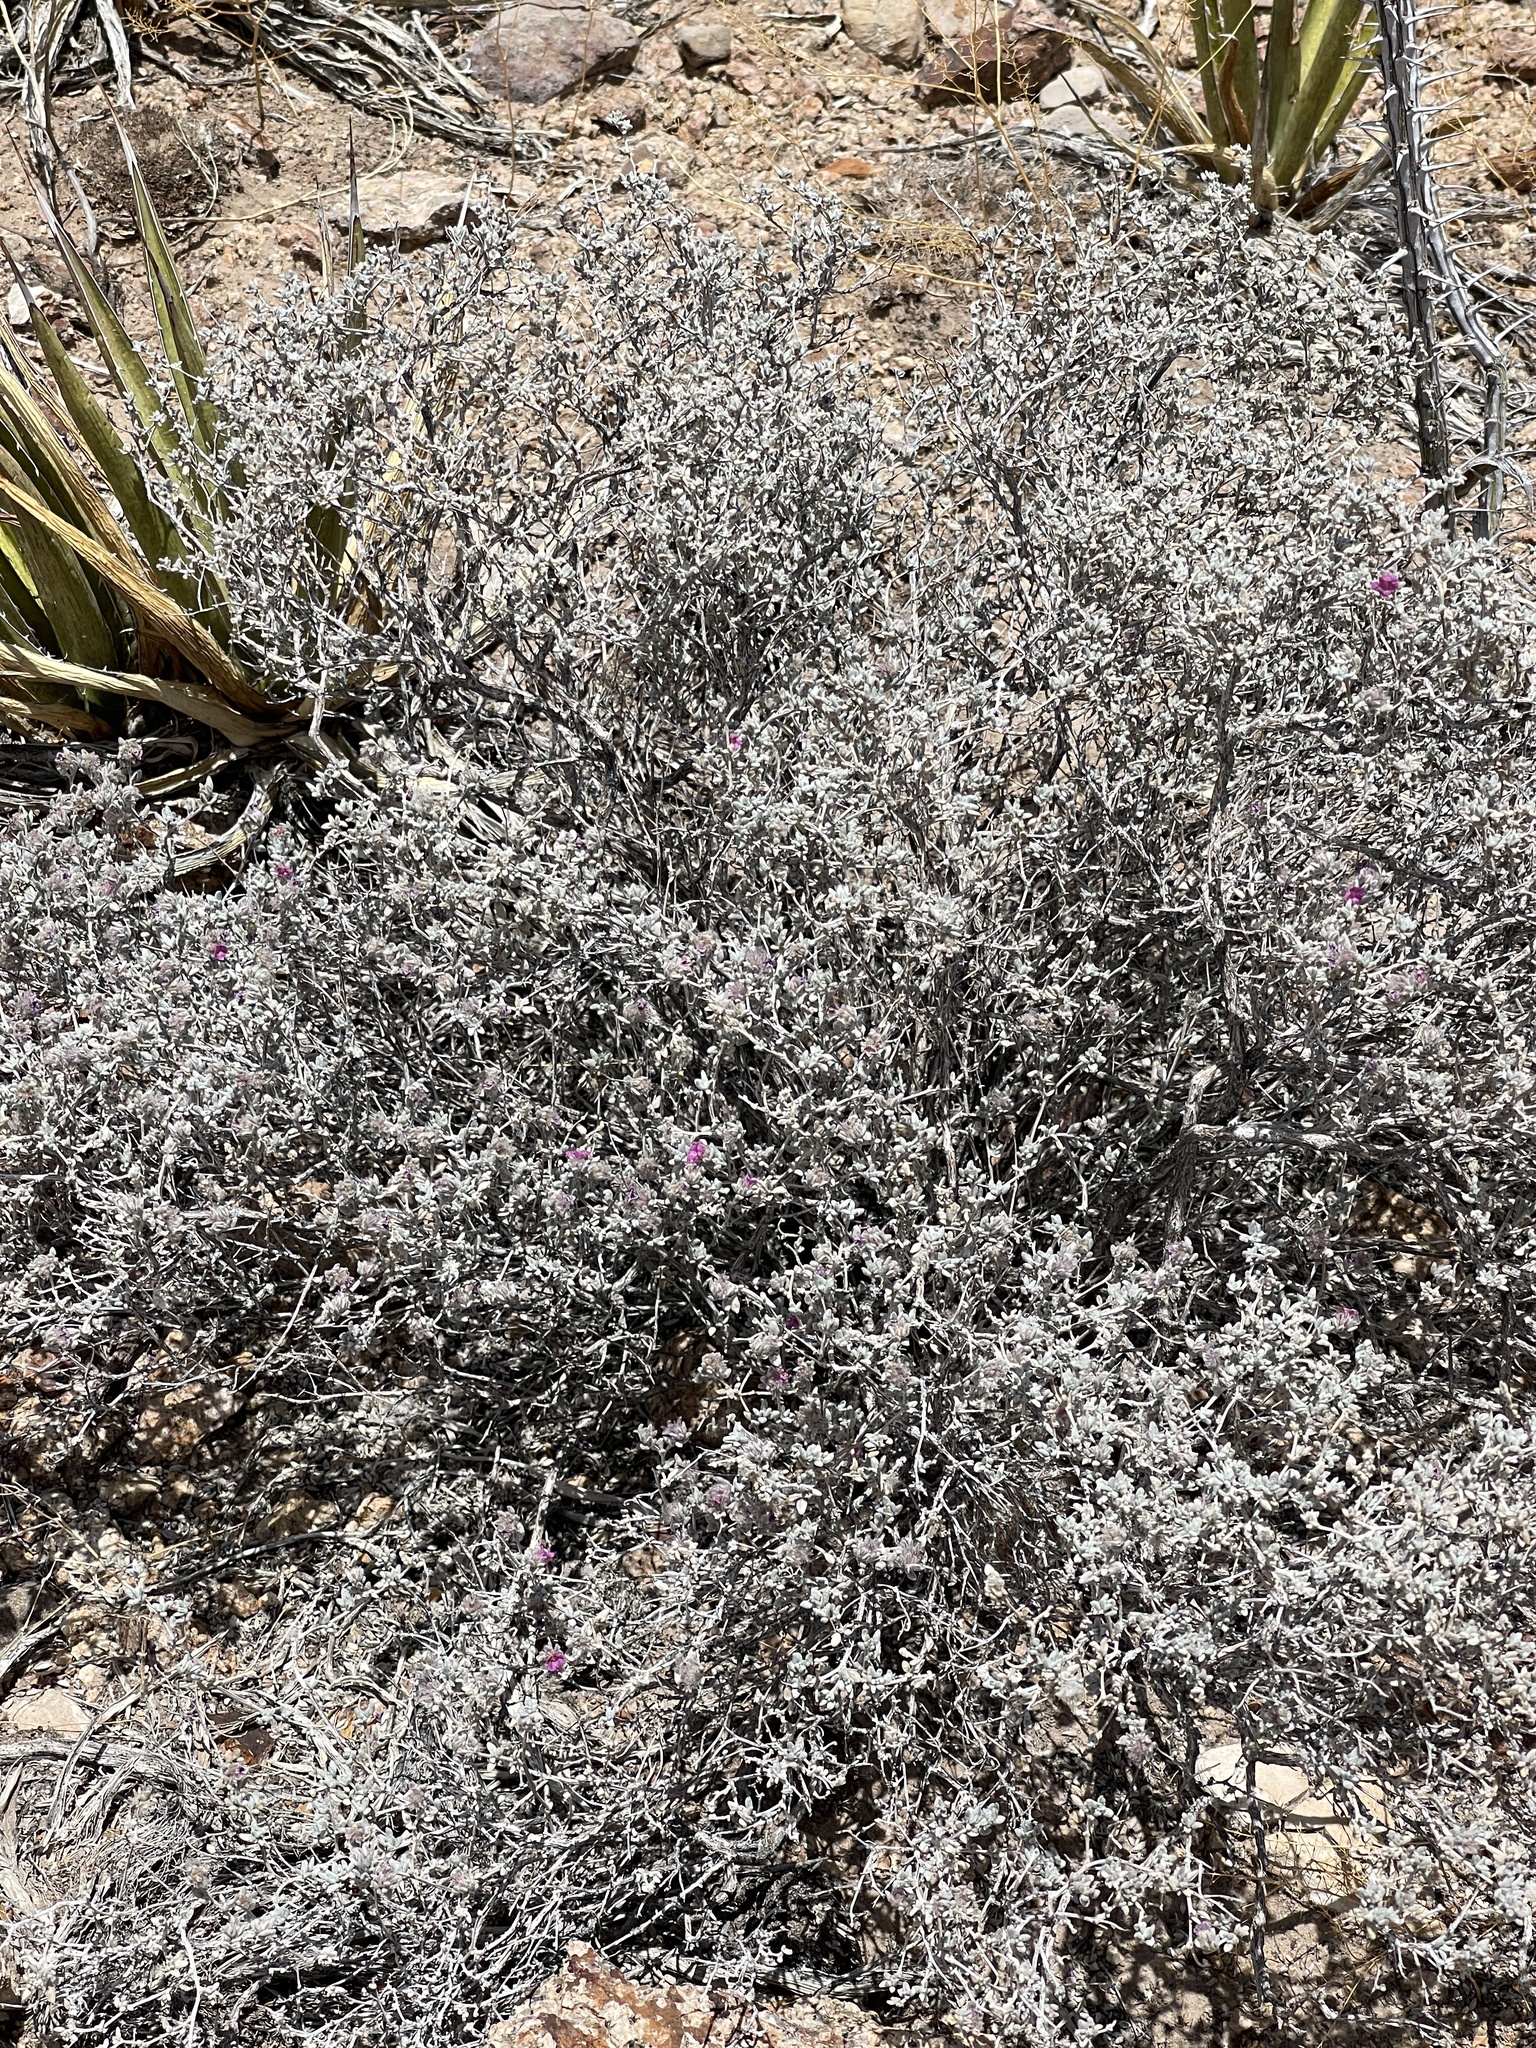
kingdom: Plantae
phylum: Tracheophyta
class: Magnoliopsida
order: Boraginales
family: Ehretiaceae
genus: Tiquilia
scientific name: Tiquilia greggii
